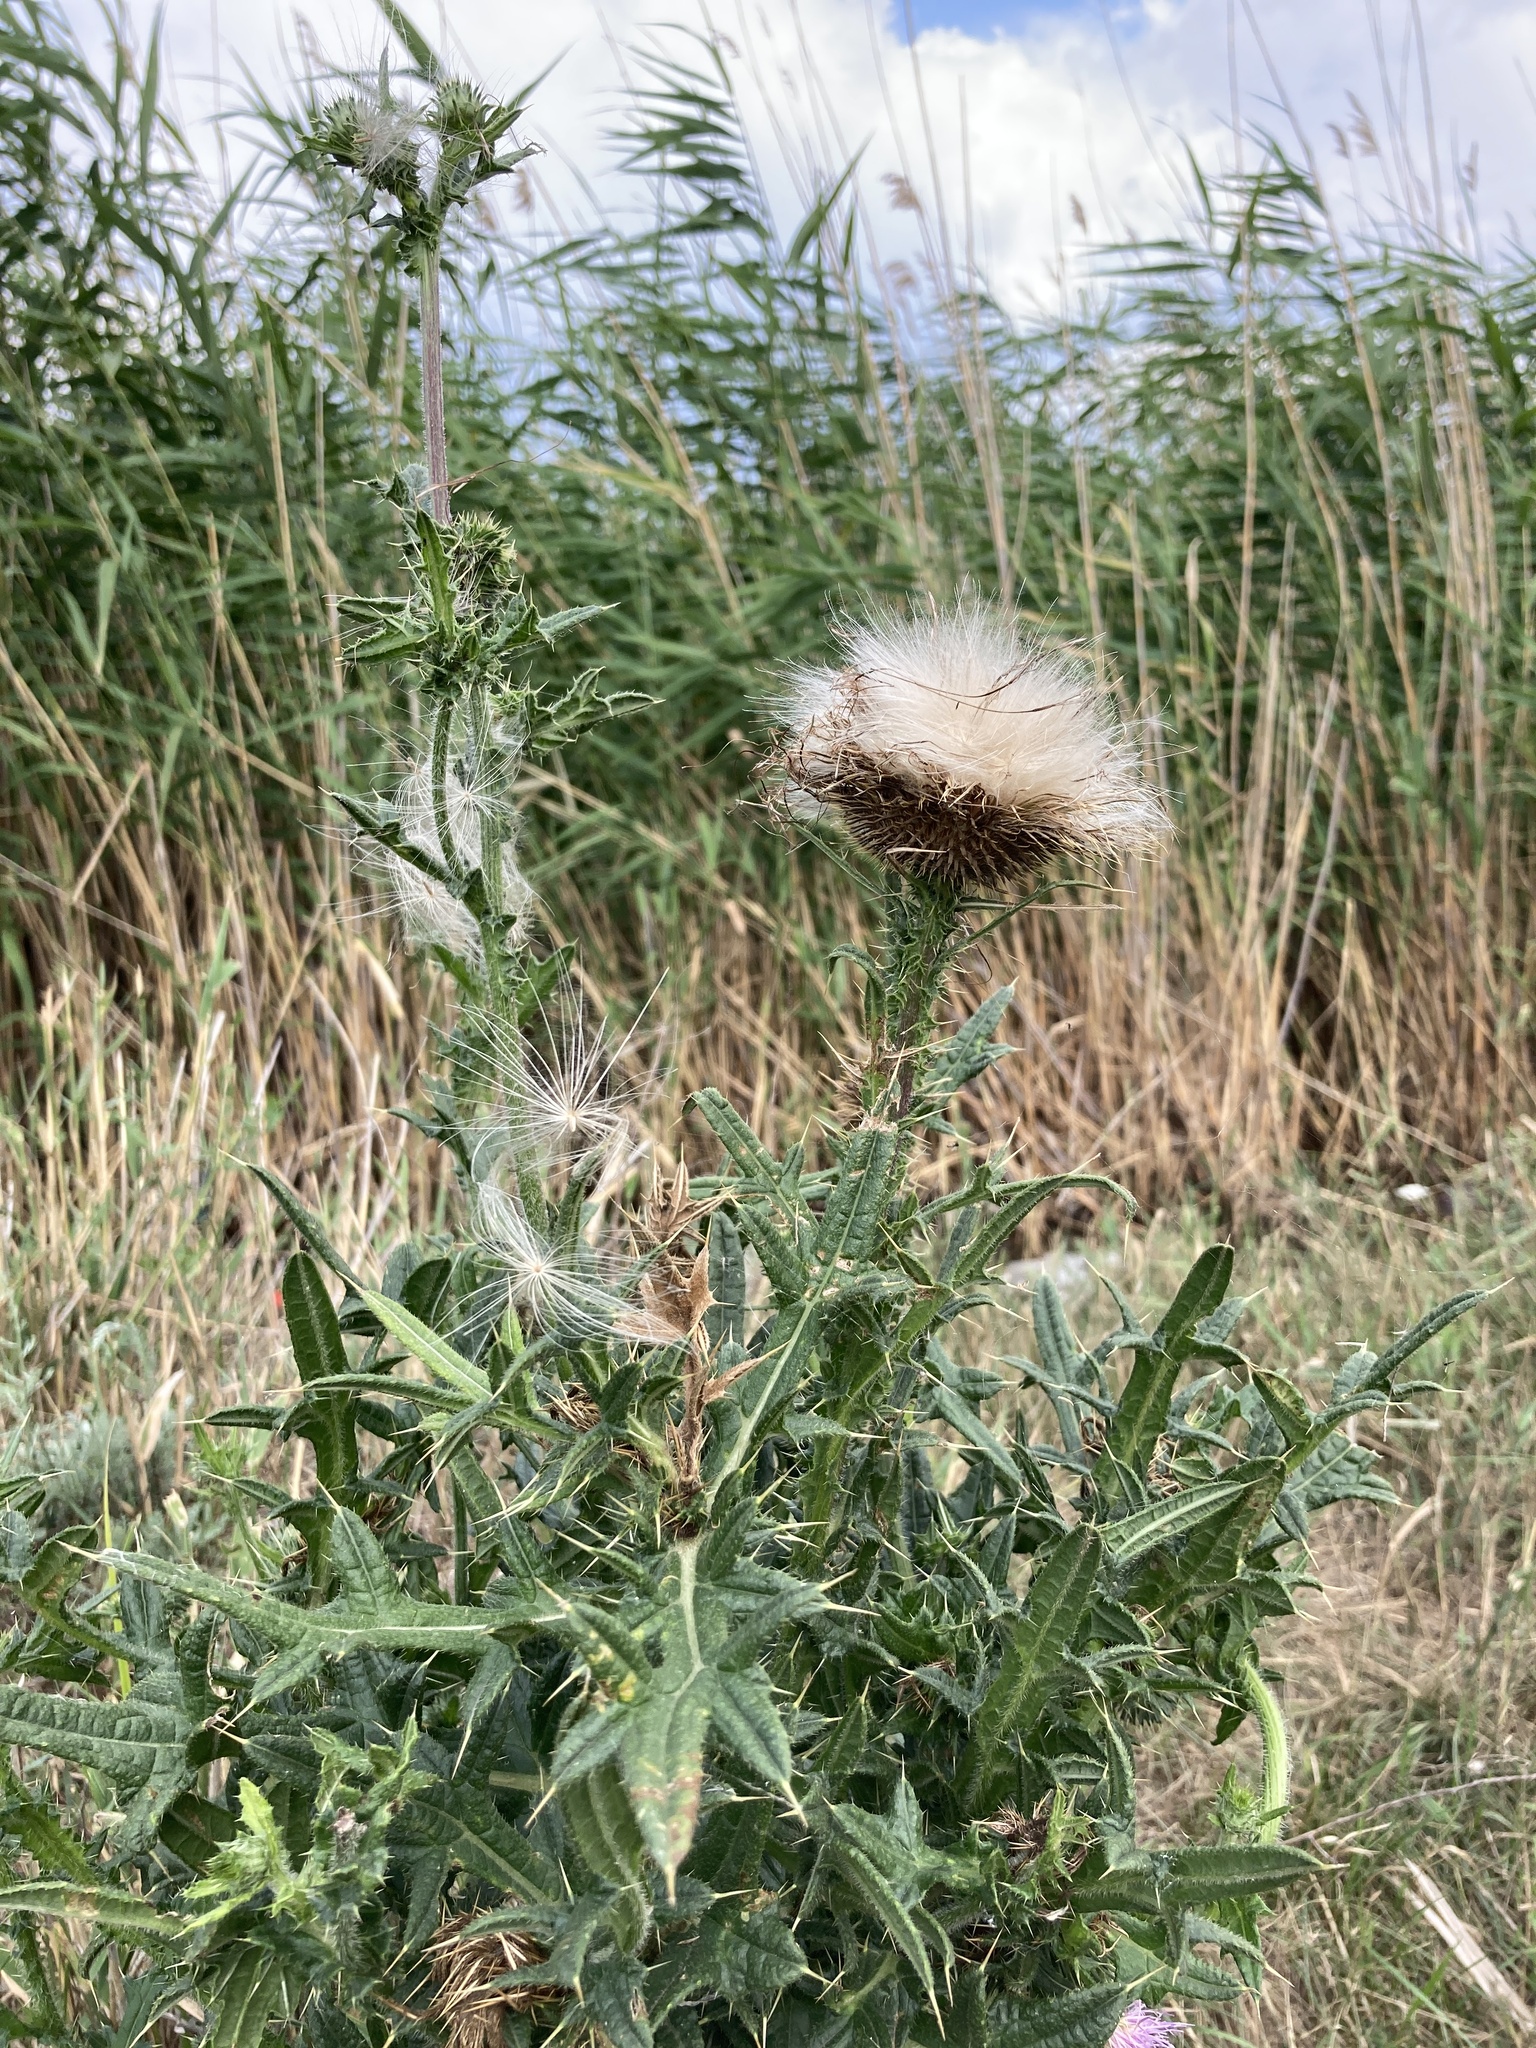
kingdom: Plantae
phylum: Tracheophyta
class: Magnoliopsida
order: Asterales
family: Asteraceae
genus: Cirsium
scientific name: Cirsium vulgare
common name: Bull thistle
